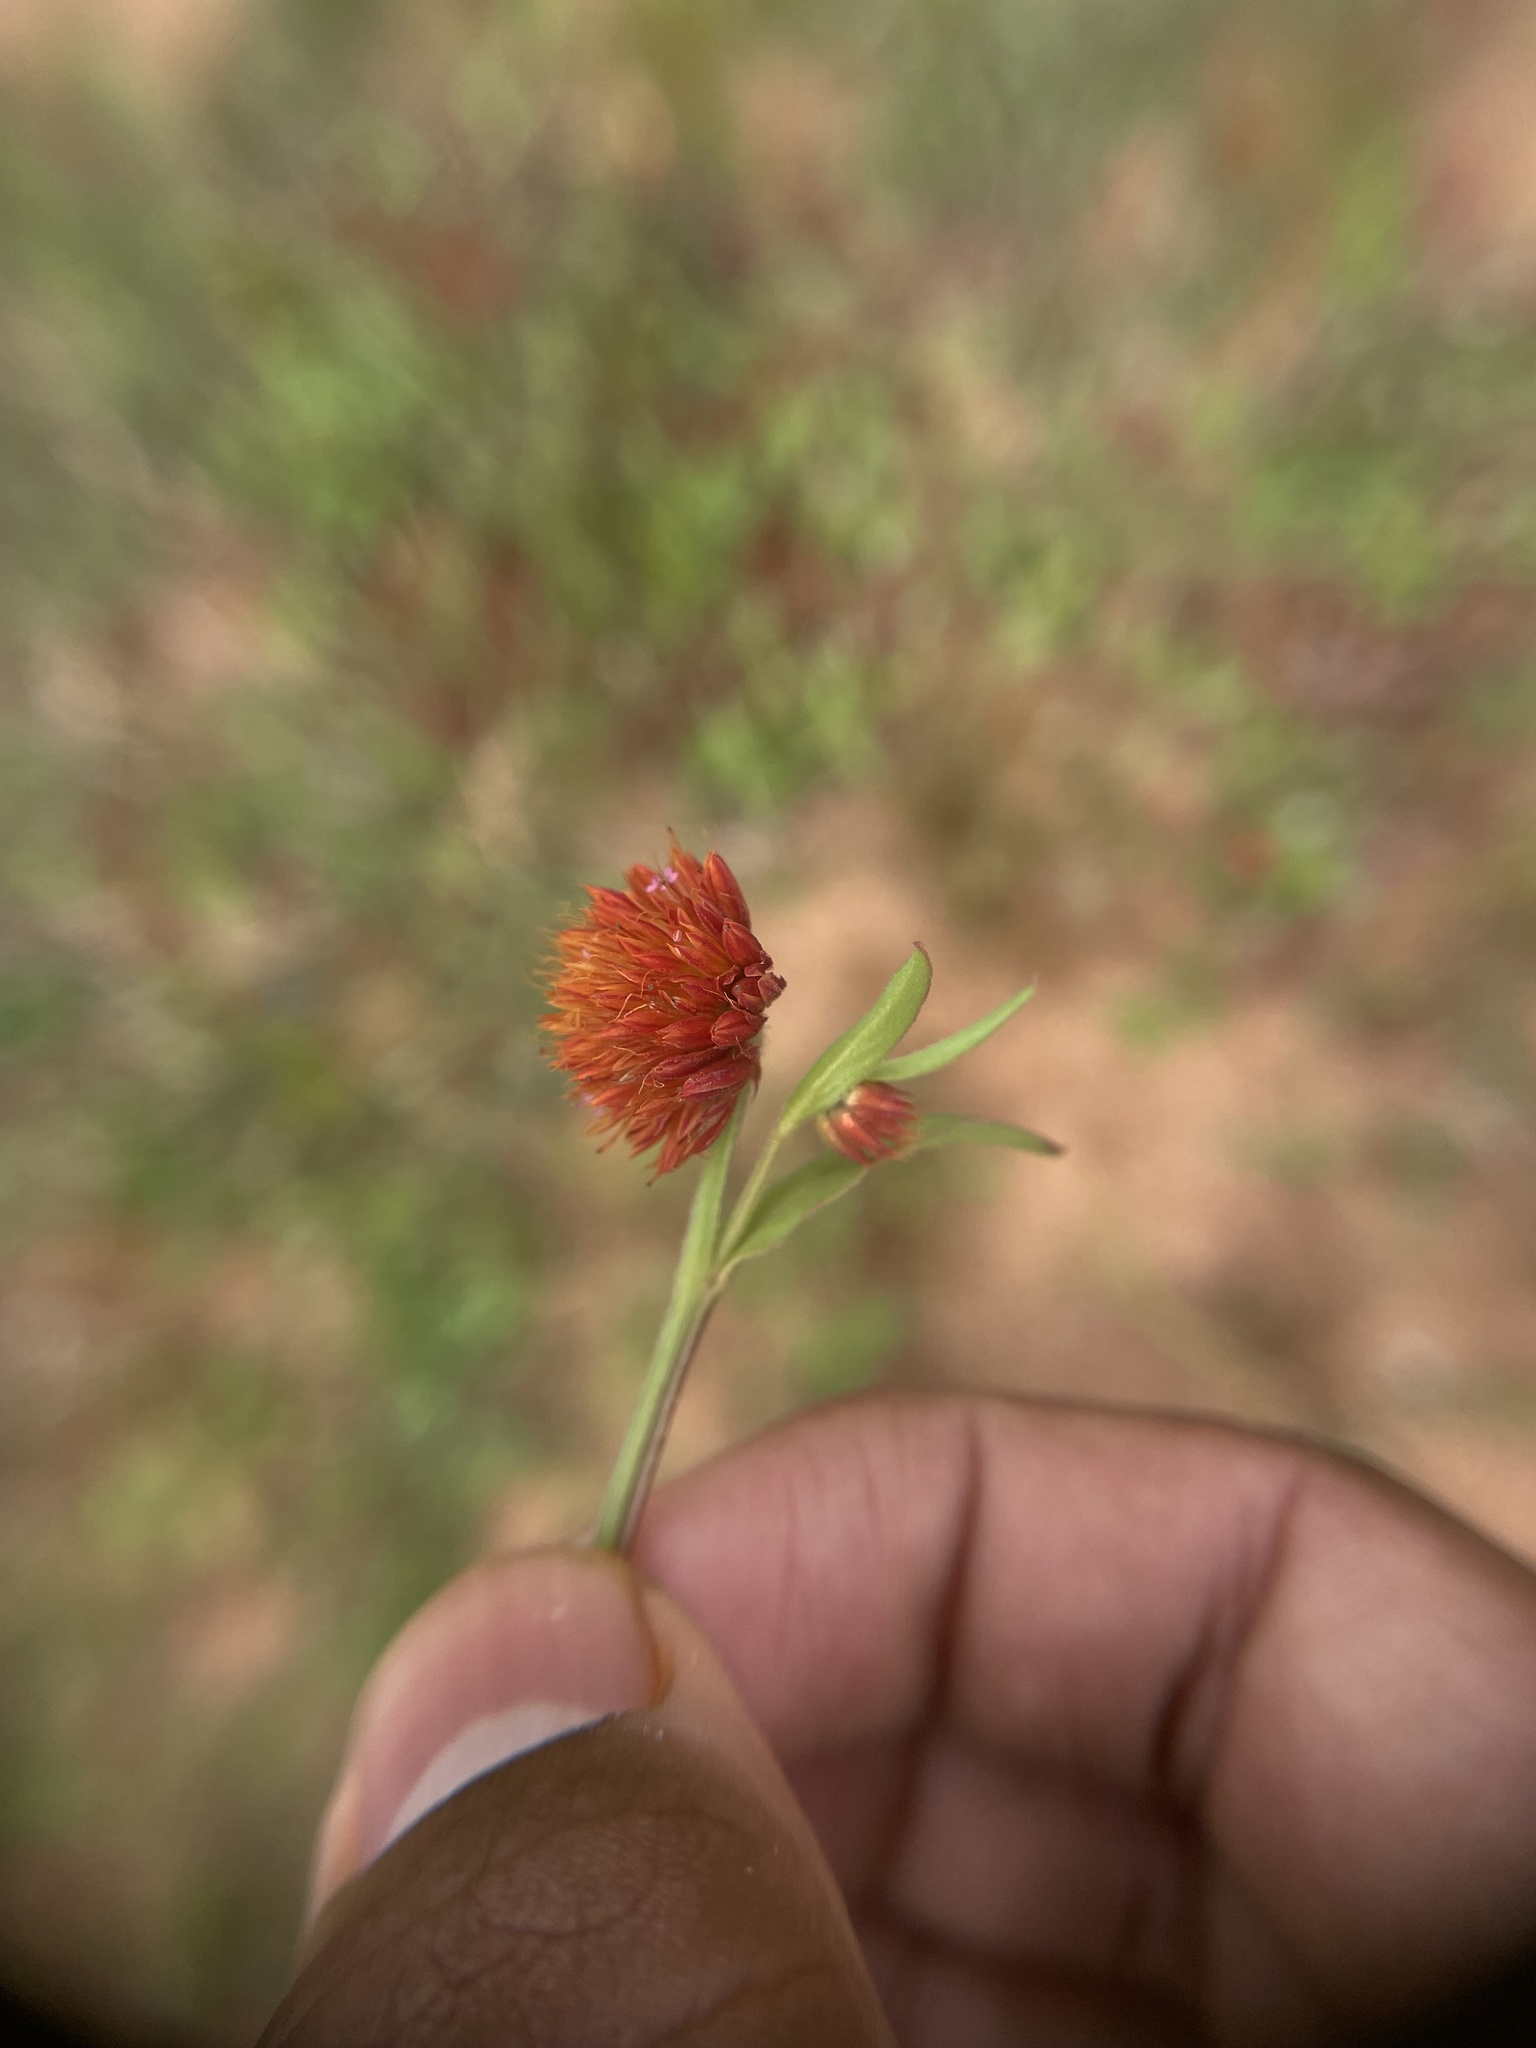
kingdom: Plantae
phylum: Tracheophyta
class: Magnoliopsida
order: Caryophyllales
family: Amaranthaceae
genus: Allmania
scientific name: Allmania nodiflora
